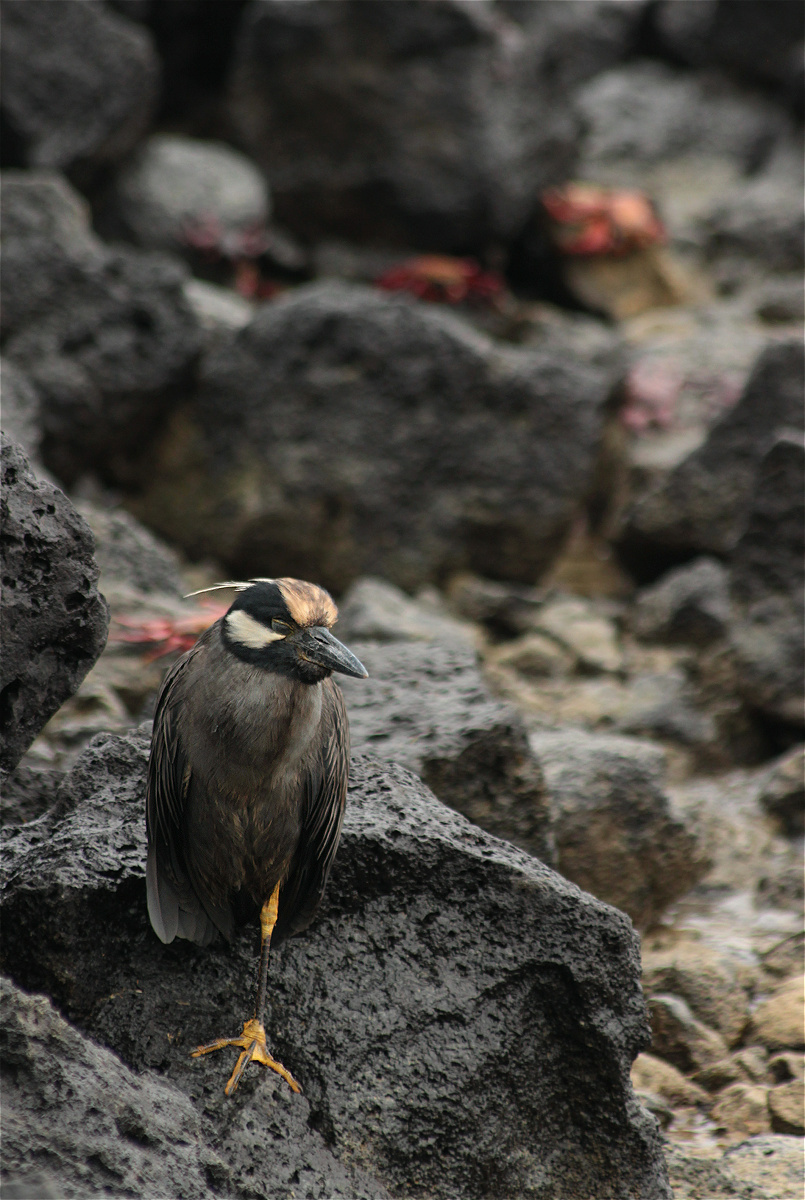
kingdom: Animalia
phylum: Chordata
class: Aves
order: Pelecaniformes
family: Ardeidae
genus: Nyctanassa
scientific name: Nyctanassa violacea
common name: Yellow-crowned night heron
